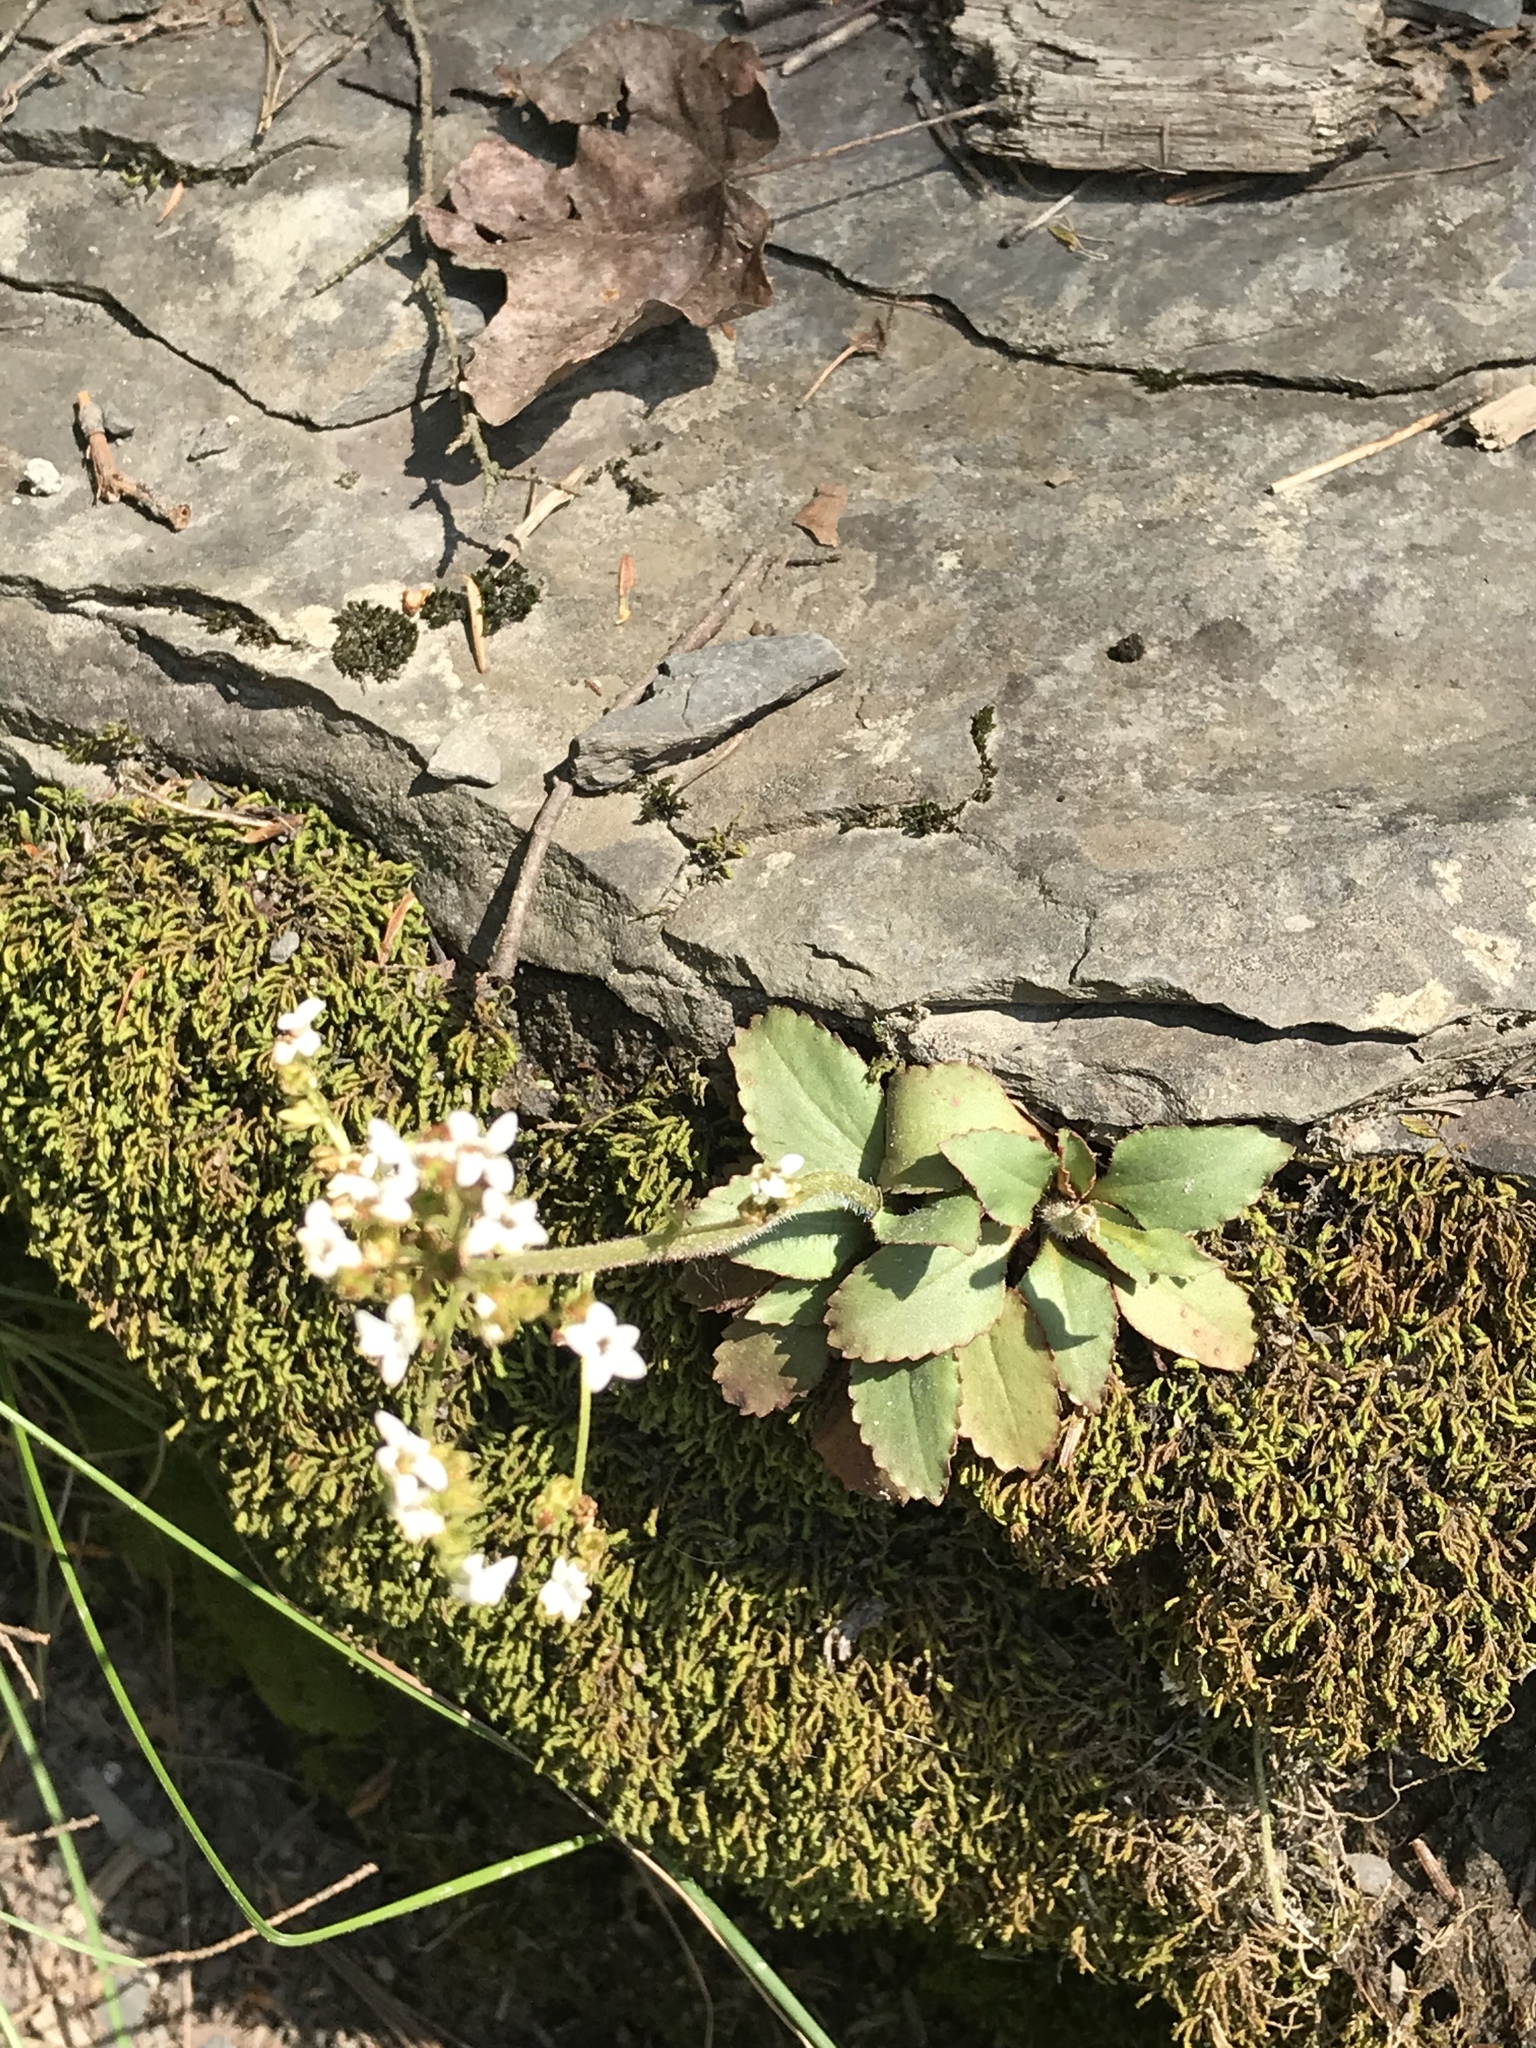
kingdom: Plantae
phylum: Tracheophyta
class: Magnoliopsida
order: Saxifragales
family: Saxifragaceae
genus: Micranthes
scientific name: Micranthes virginiensis
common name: Early saxifrage
